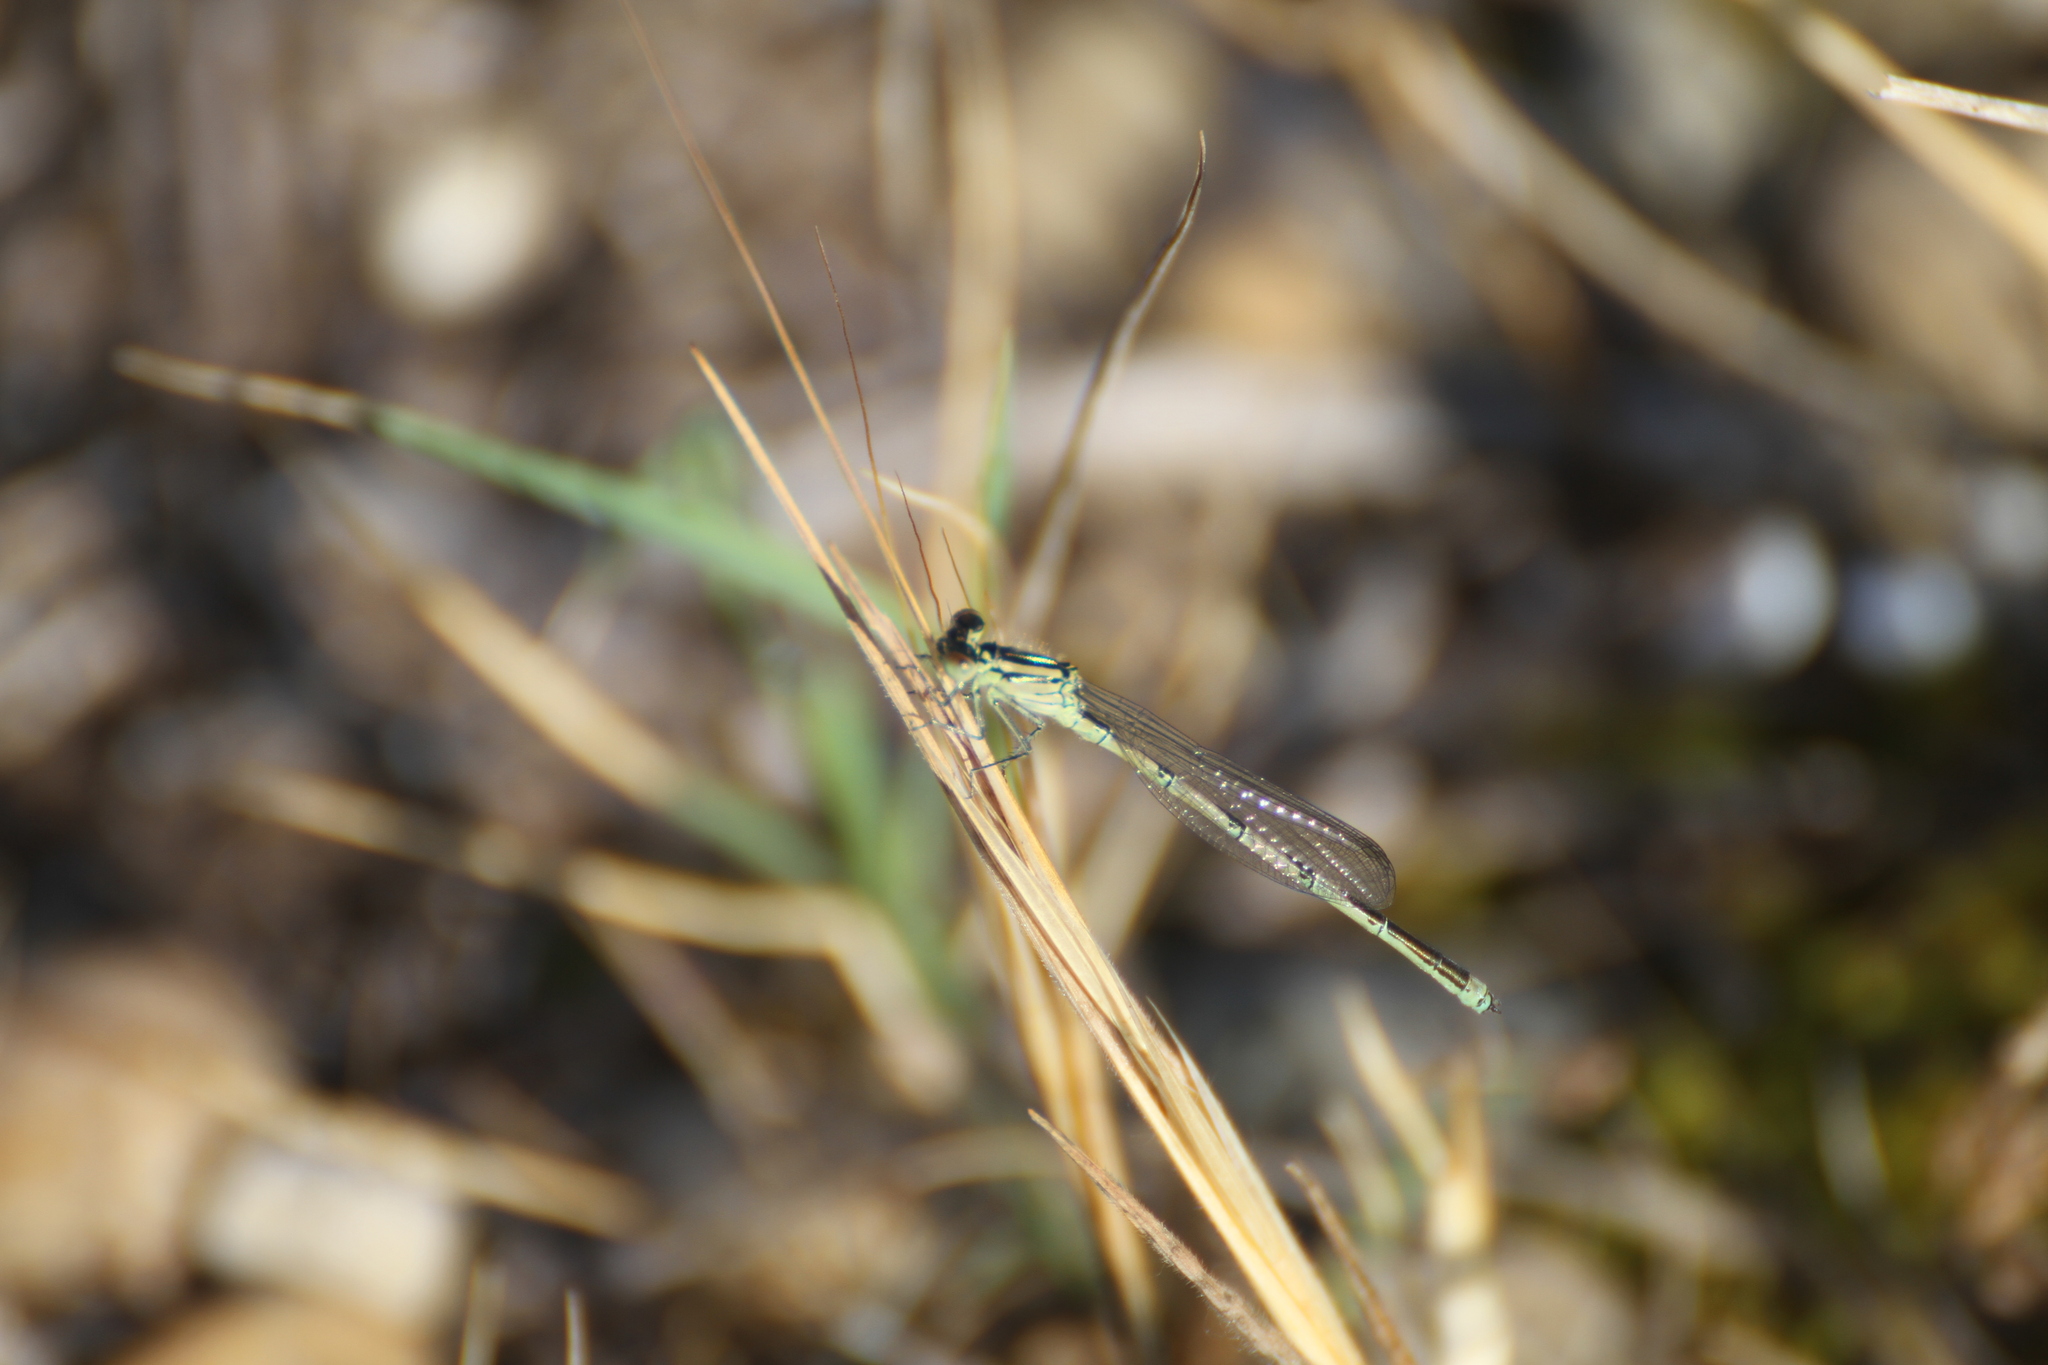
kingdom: Animalia
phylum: Arthropoda
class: Insecta
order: Odonata
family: Coenagrionidae
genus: Erythromma
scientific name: Erythromma lindenii
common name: Blue-eye
